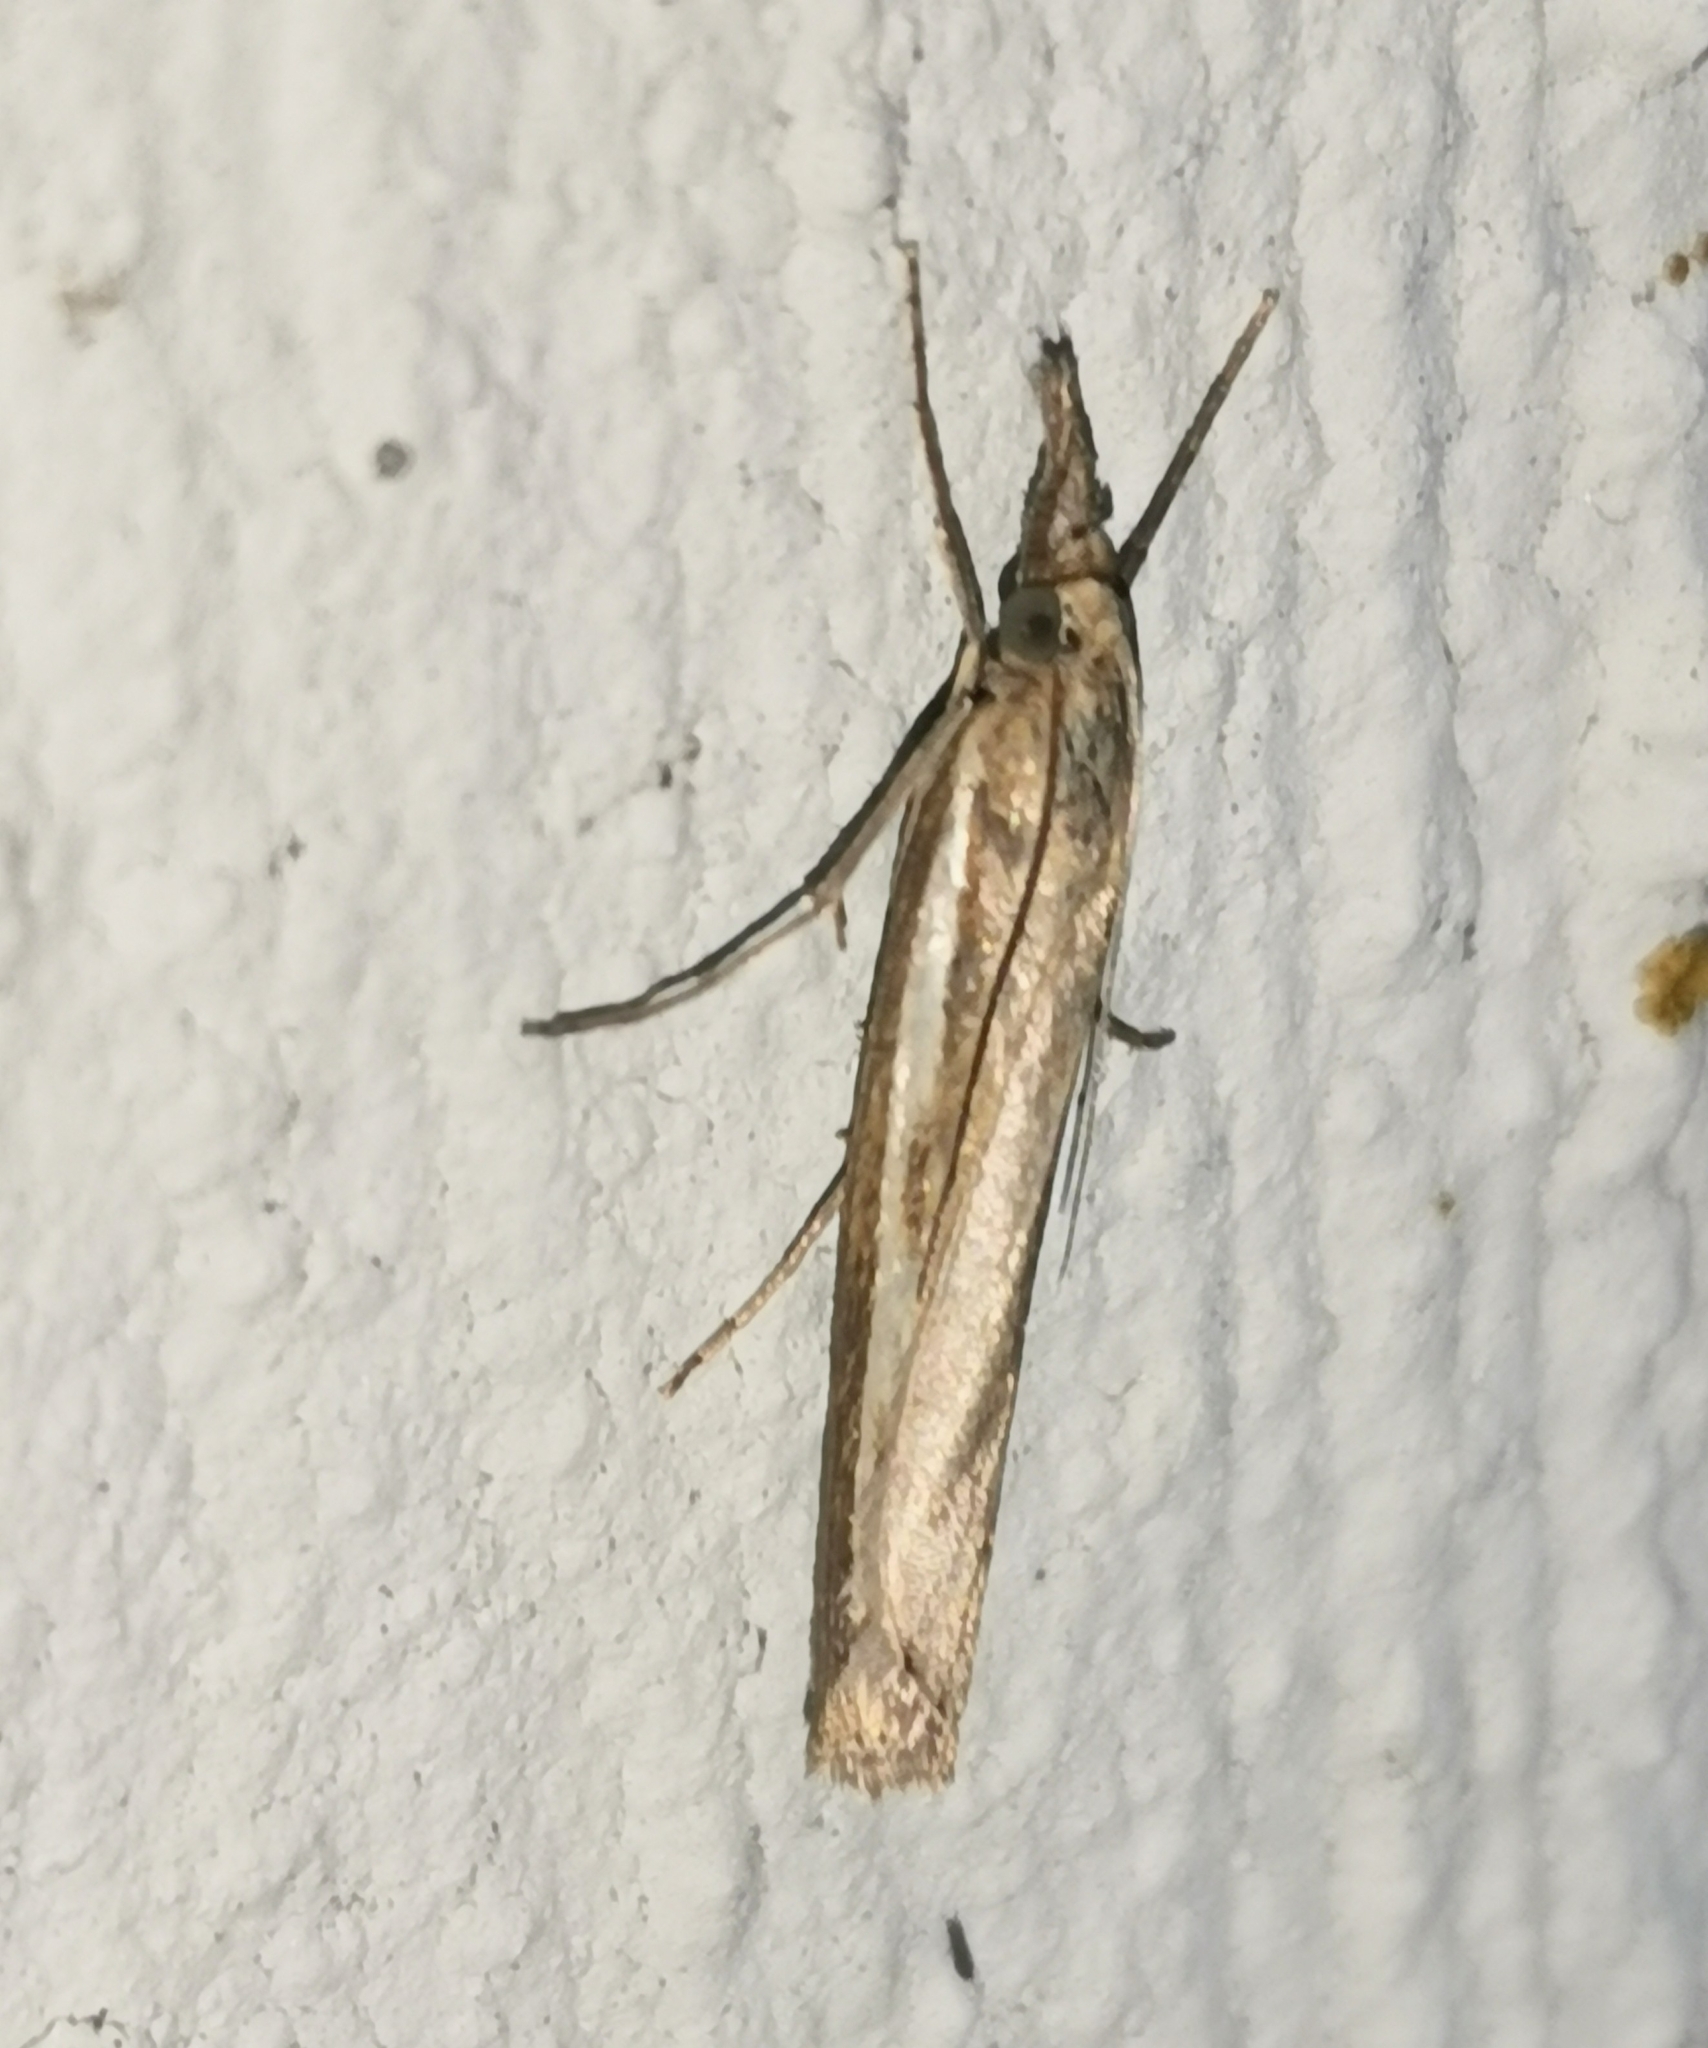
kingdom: Animalia
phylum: Arthropoda
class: Insecta
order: Lepidoptera
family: Crambidae
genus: Agriphila
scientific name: Agriphila tristellus
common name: Common grass-veneer
